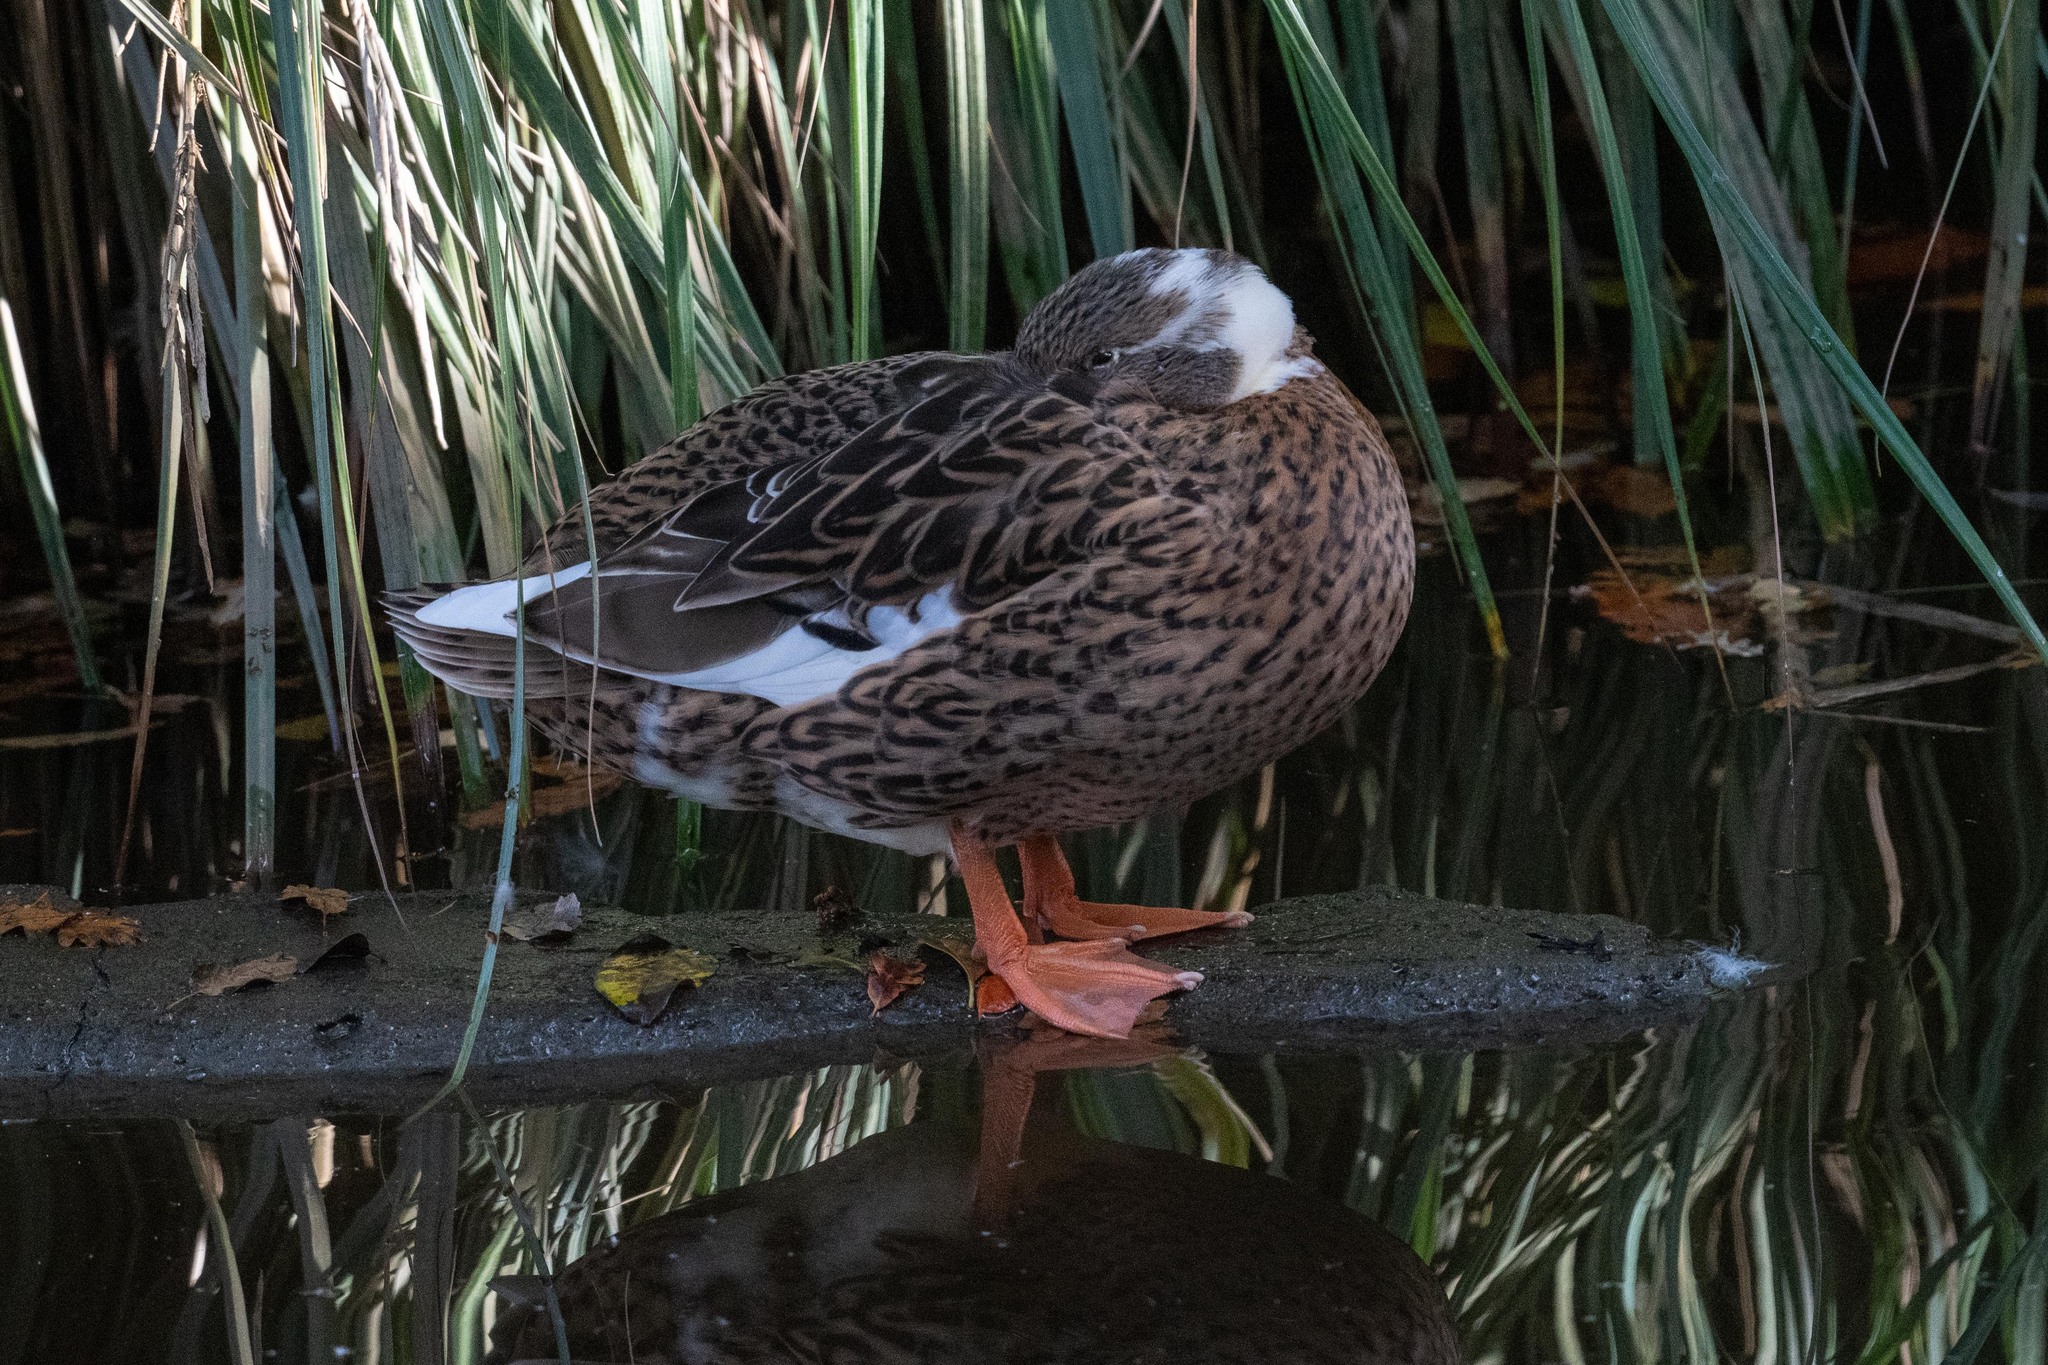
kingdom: Animalia
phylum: Chordata
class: Aves
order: Anseriformes
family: Anatidae
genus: Anas
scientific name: Anas platyrhynchos
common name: Mallard
